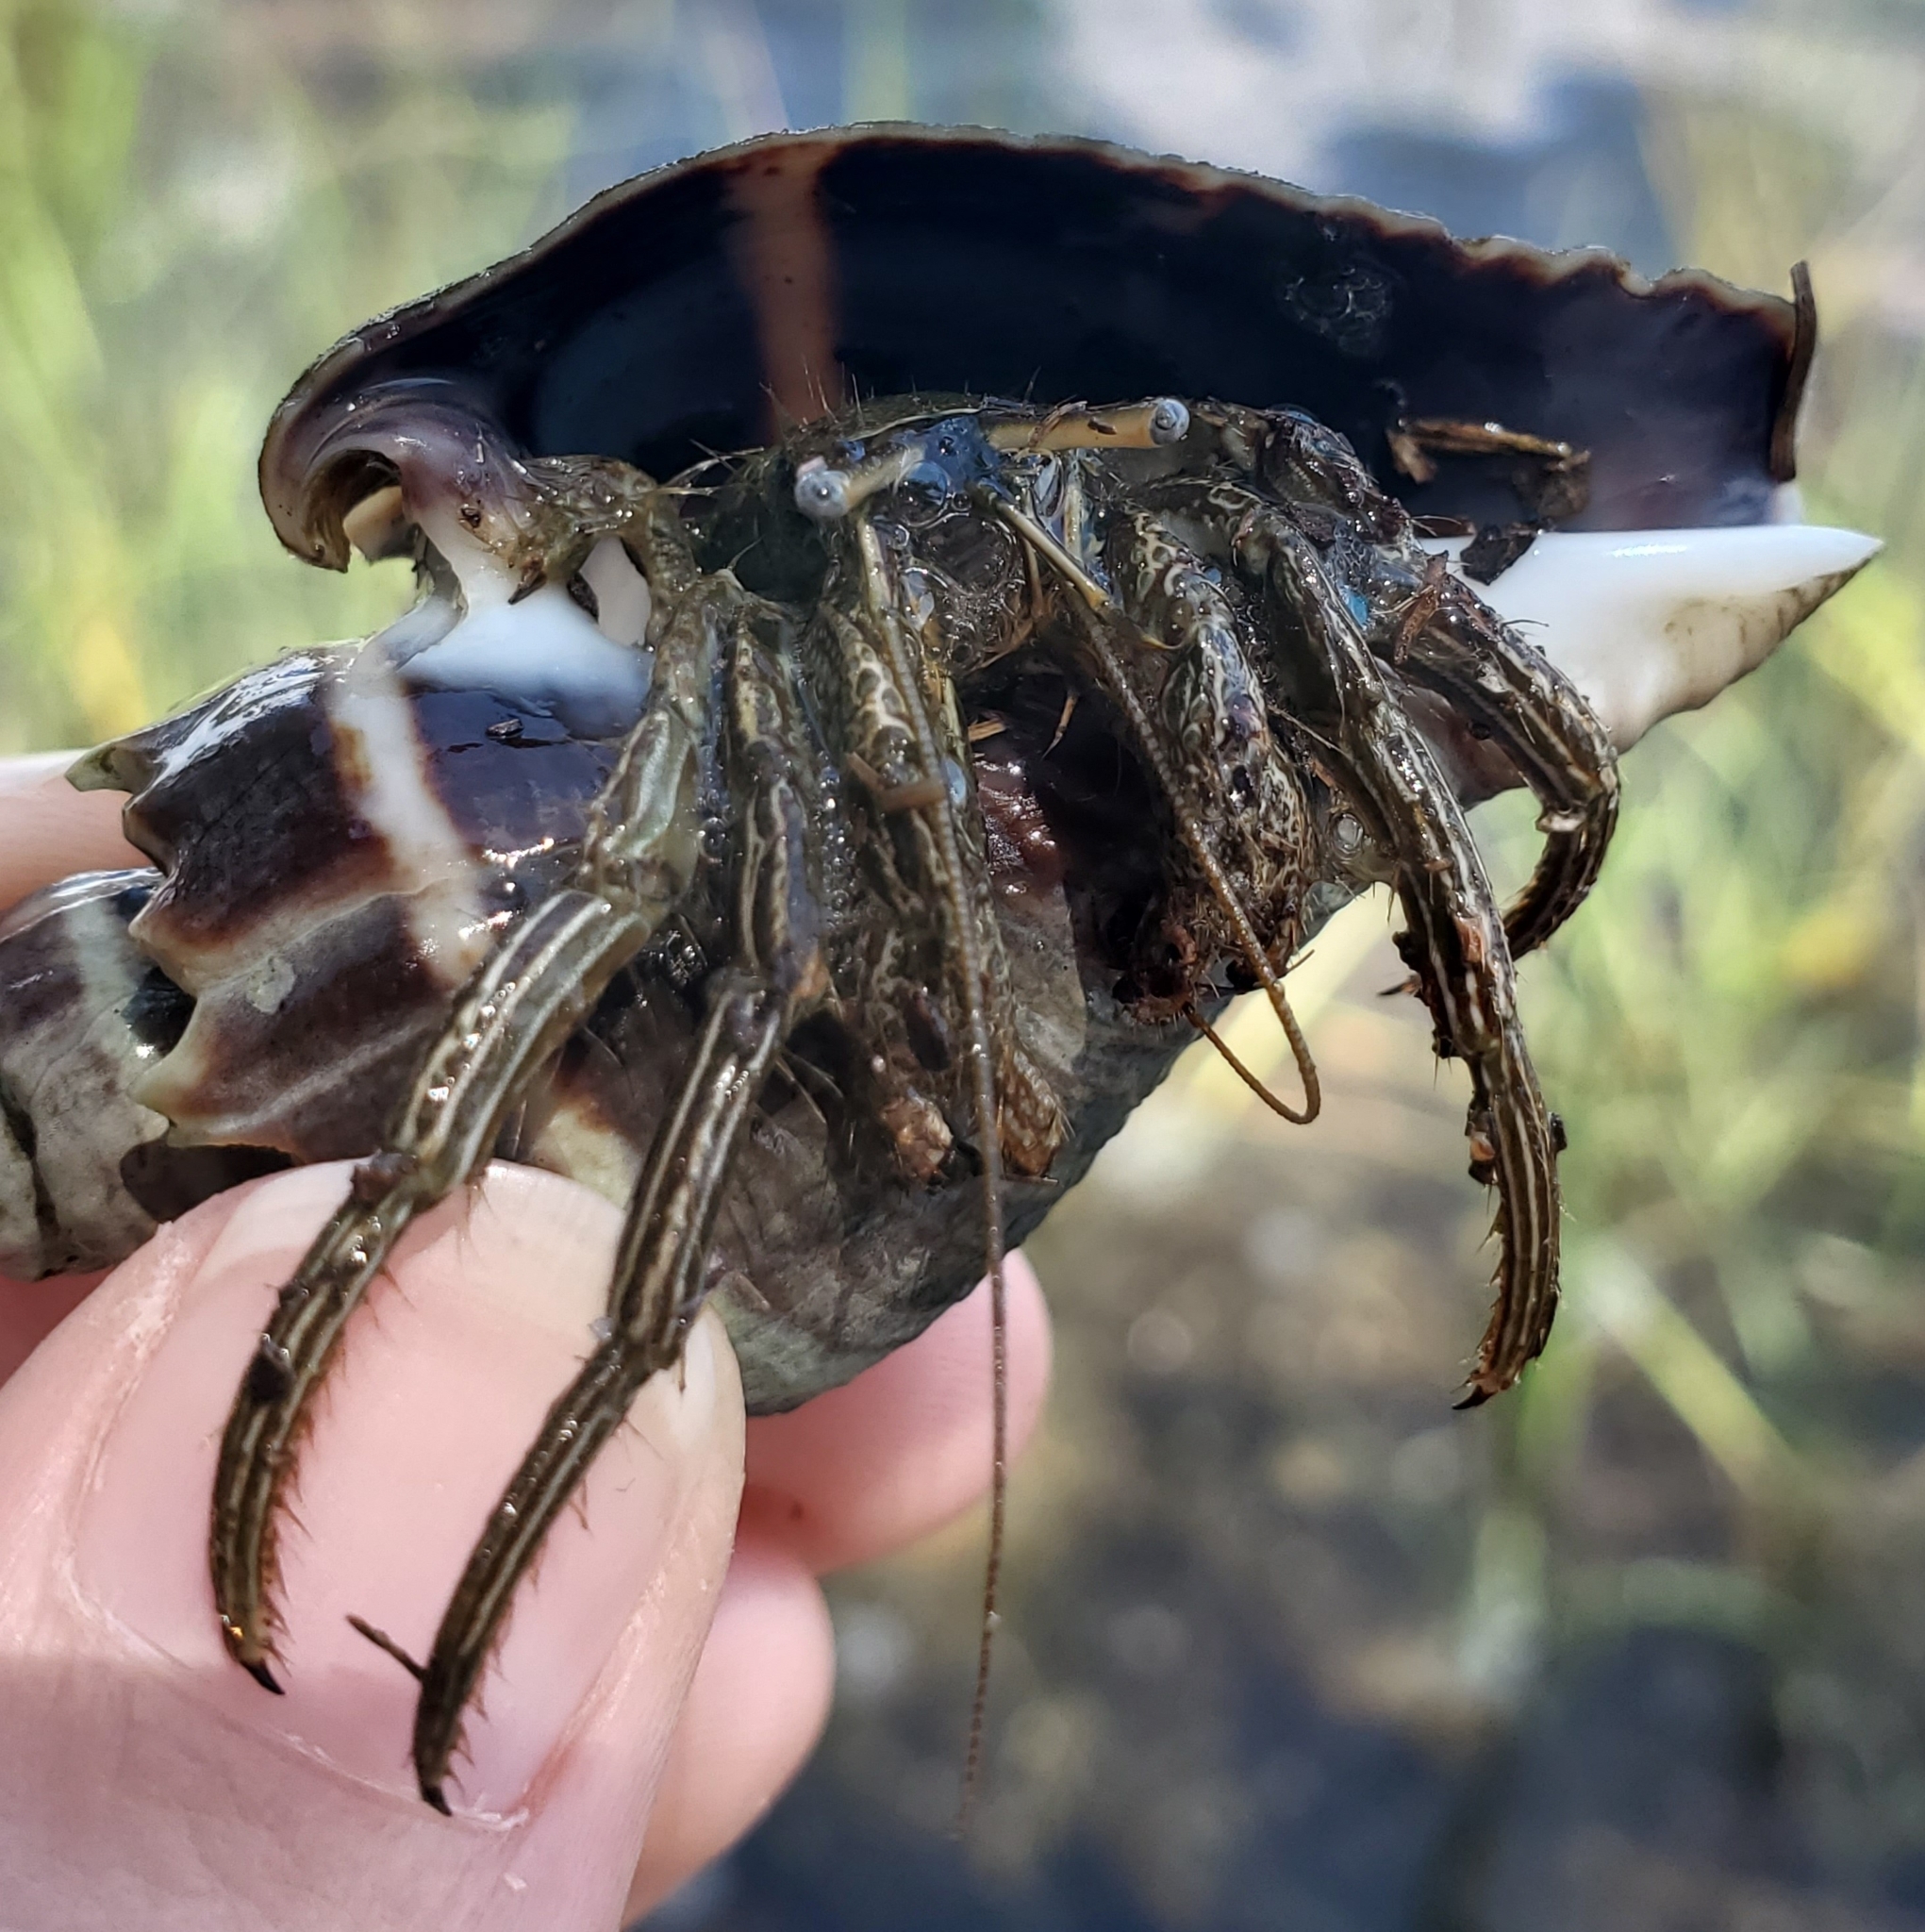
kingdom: Animalia
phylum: Arthropoda
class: Malacostraca
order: Decapoda
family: Diogenidae
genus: Clibanarius
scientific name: Clibanarius vittatus
